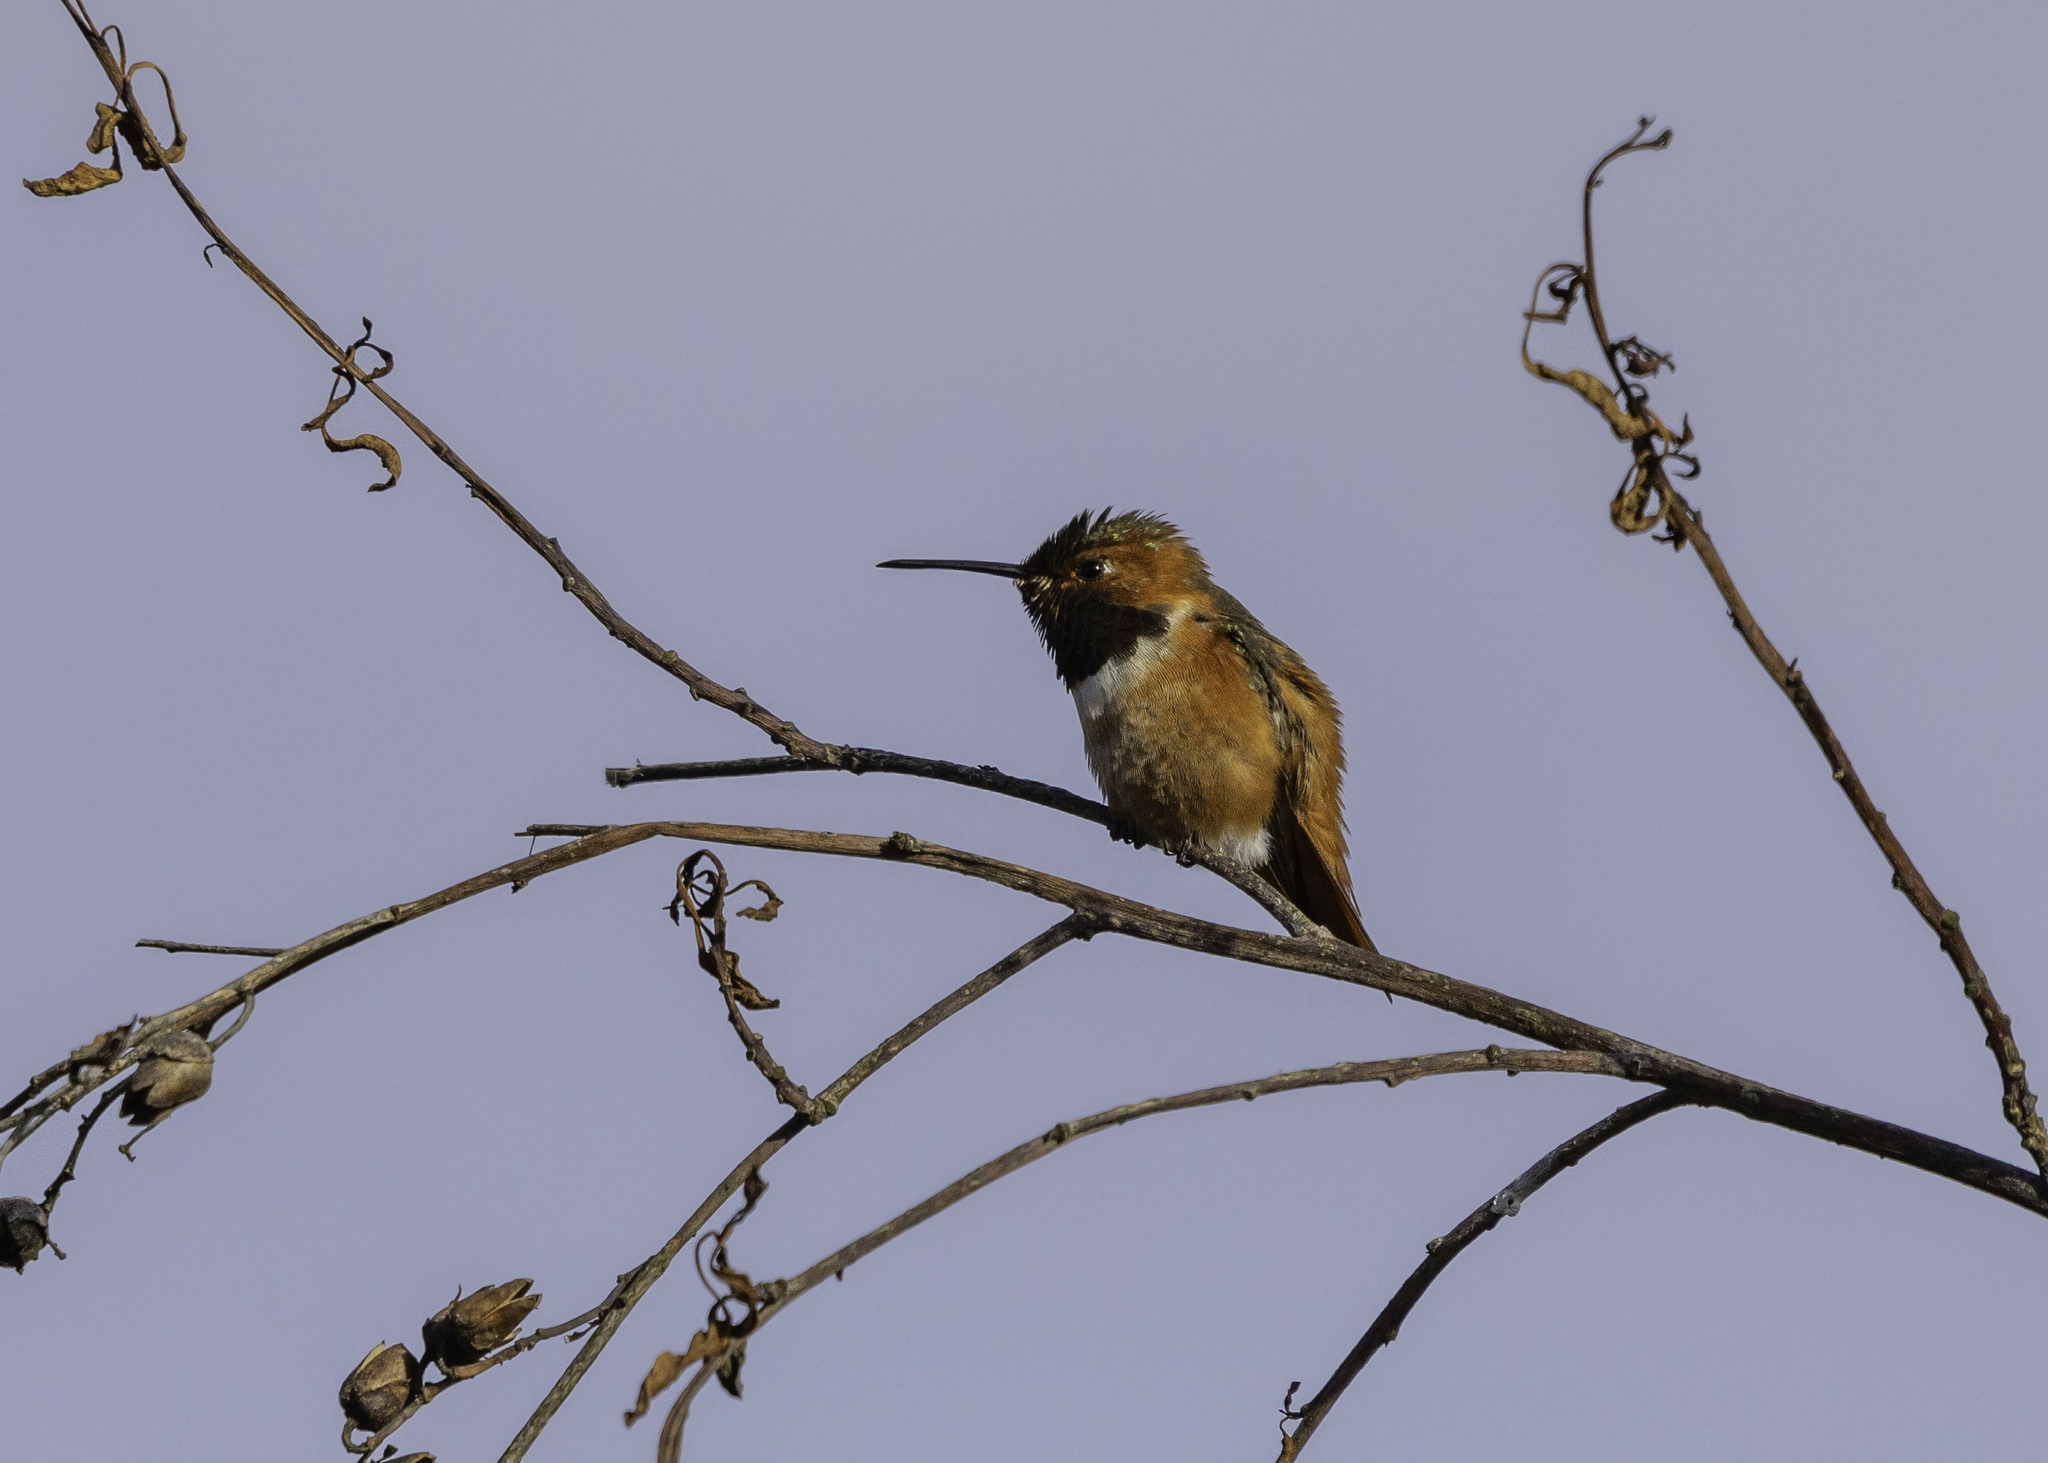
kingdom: Animalia
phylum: Chordata
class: Aves
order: Apodiformes
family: Trochilidae
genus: Selasphorus
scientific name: Selasphorus sasin
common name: Allen's hummingbird
